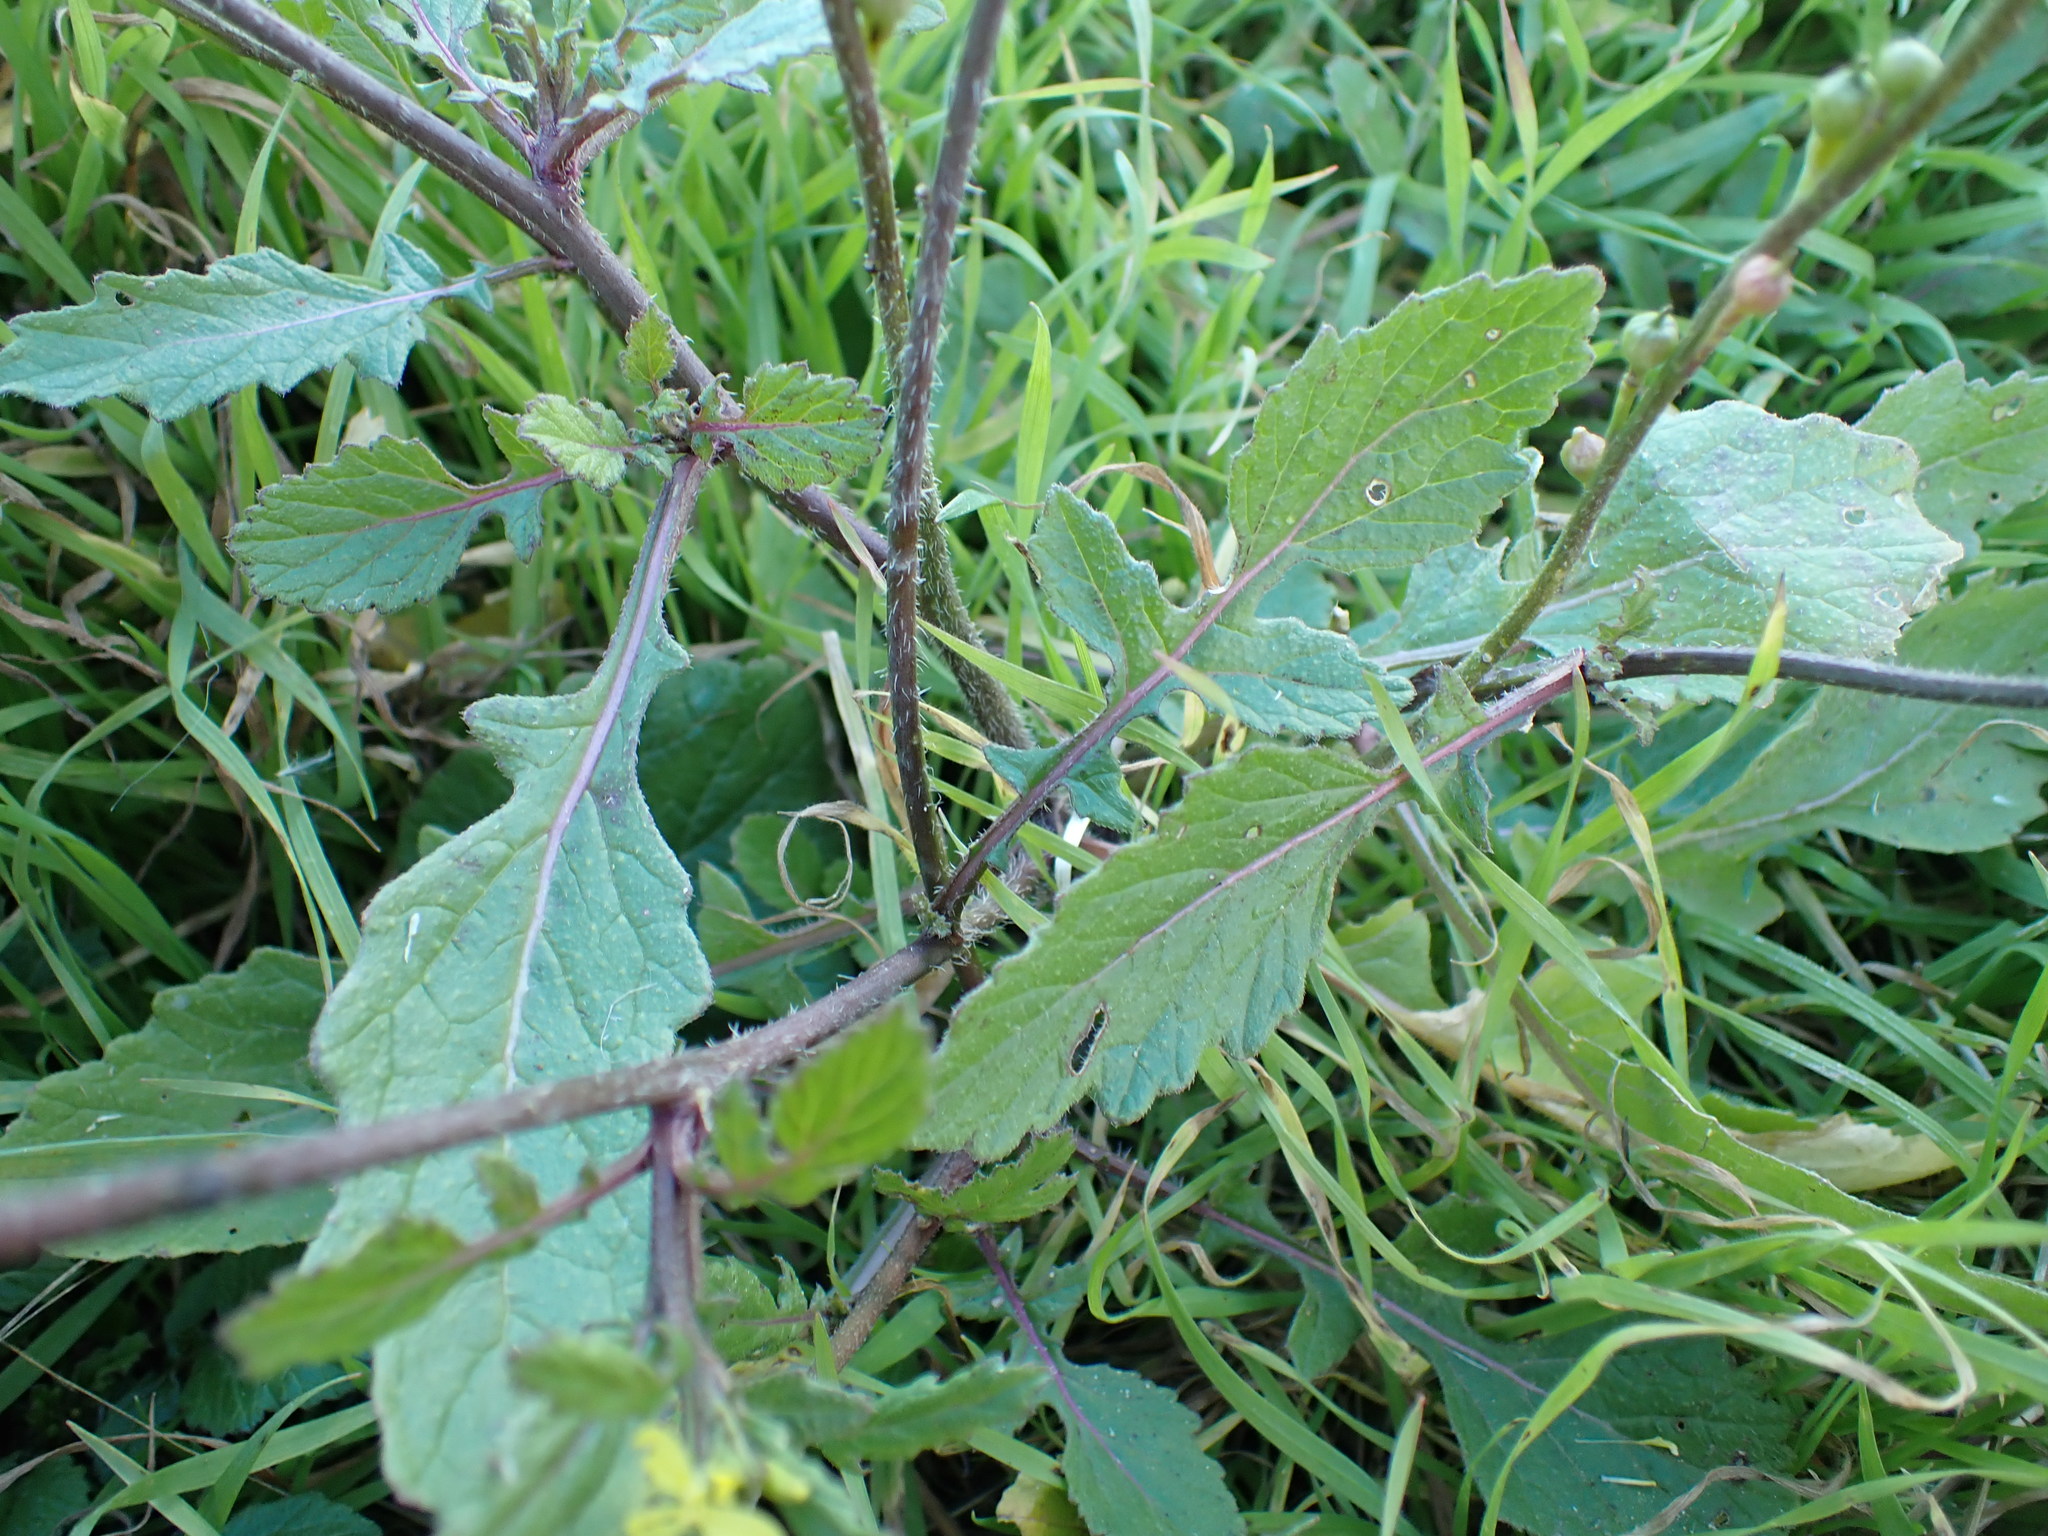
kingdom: Plantae
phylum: Tracheophyta
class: Magnoliopsida
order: Brassicales
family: Brassicaceae
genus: Rapistrum
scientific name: Rapistrum rugosum
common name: Annual bastardcabbage
